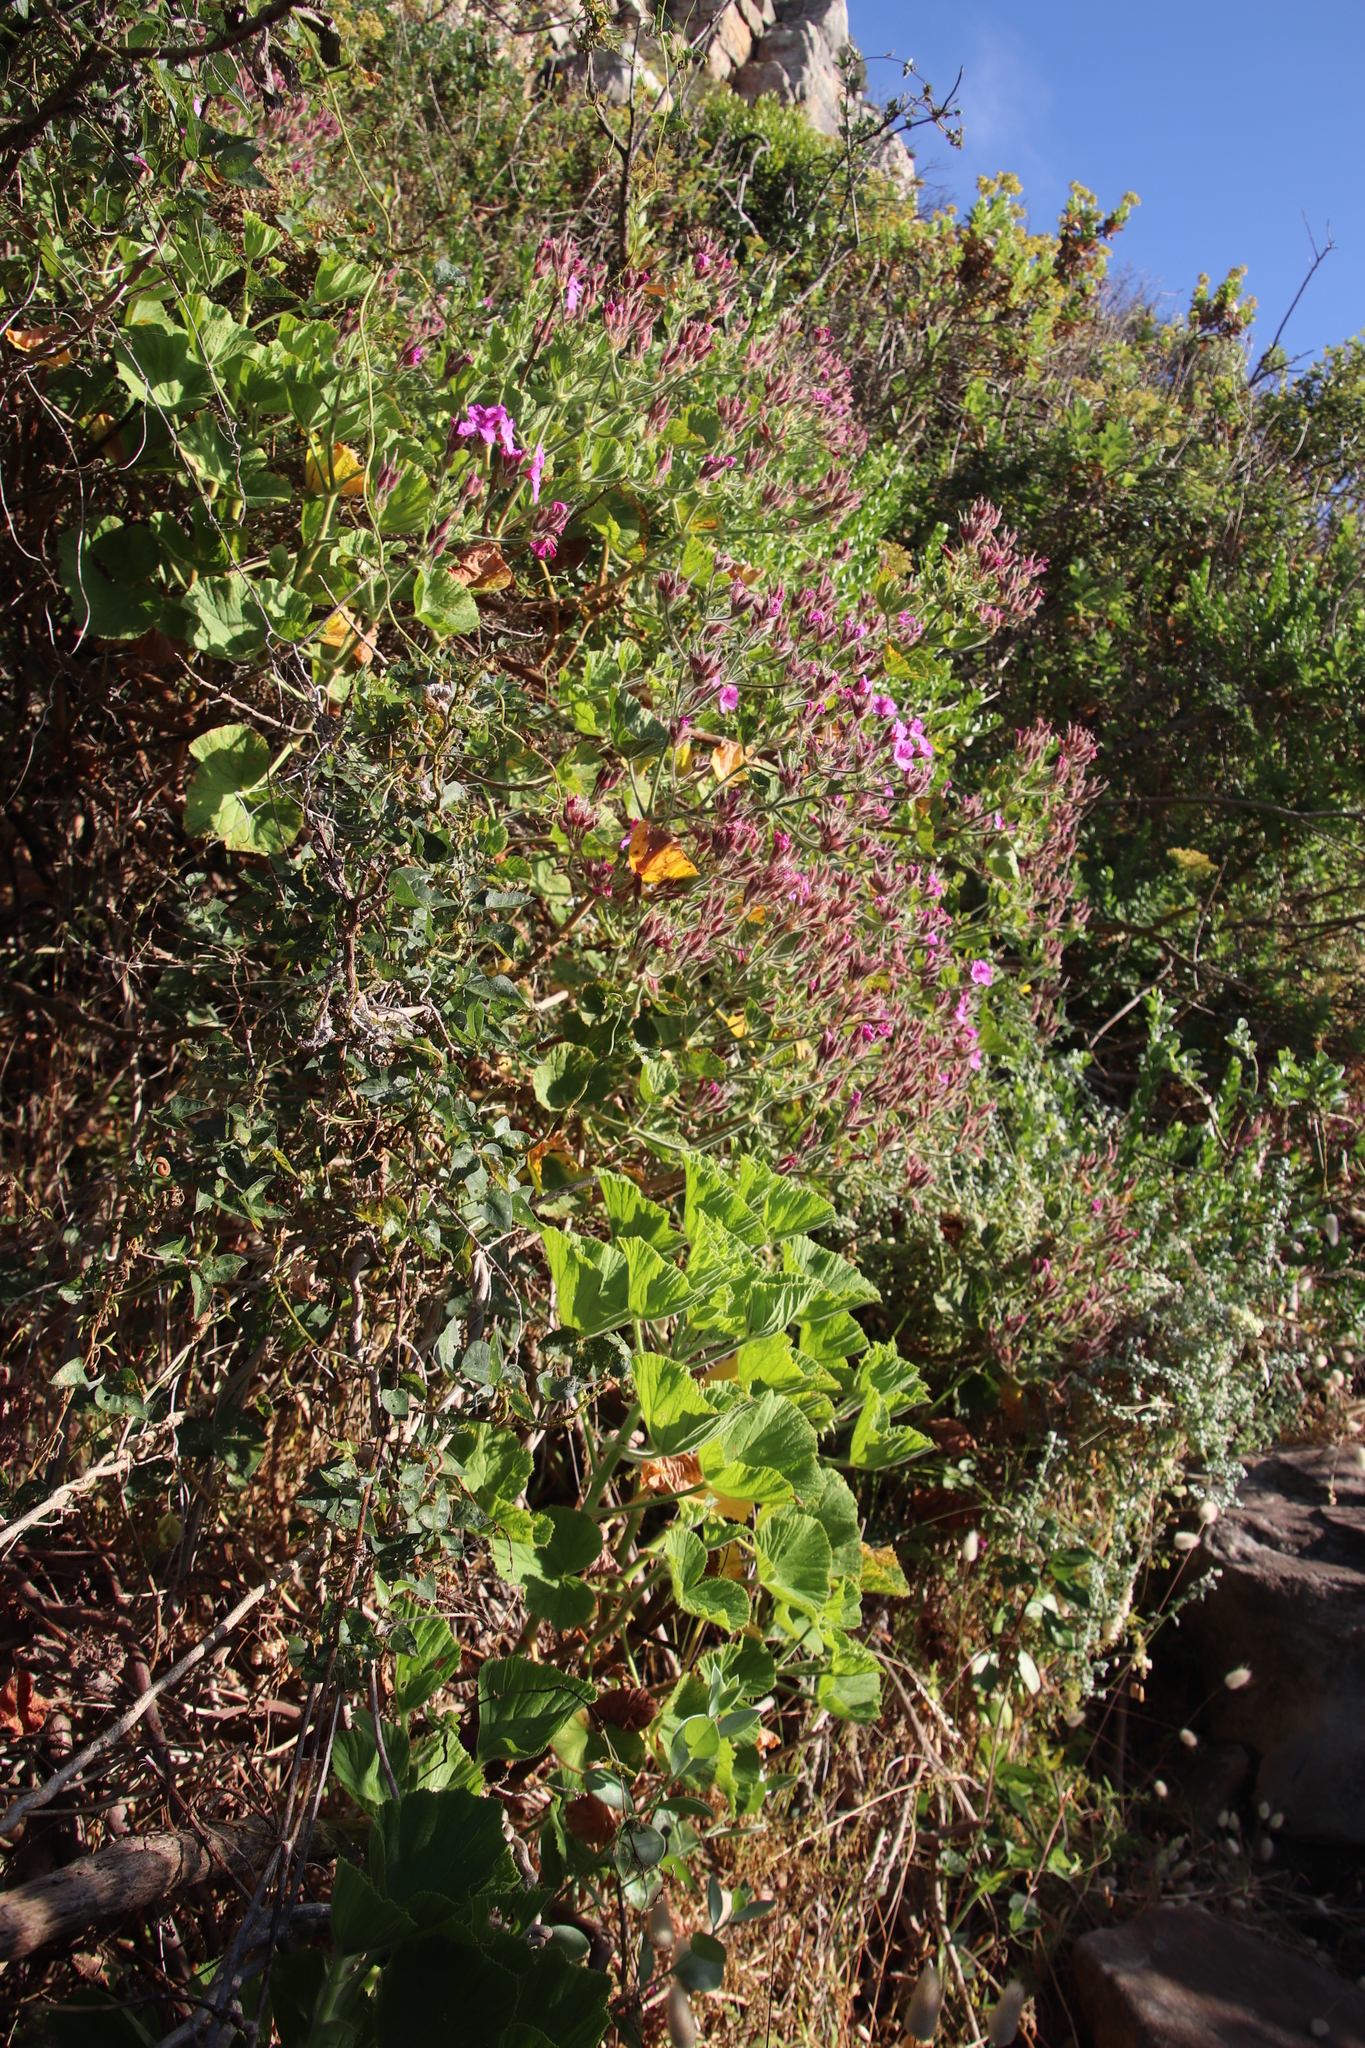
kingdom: Plantae
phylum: Tracheophyta
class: Magnoliopsida
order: Geraniales
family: Geraniaceae
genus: Pelargonium
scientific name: Pelargonium cucullatum
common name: Tree pelargonium
